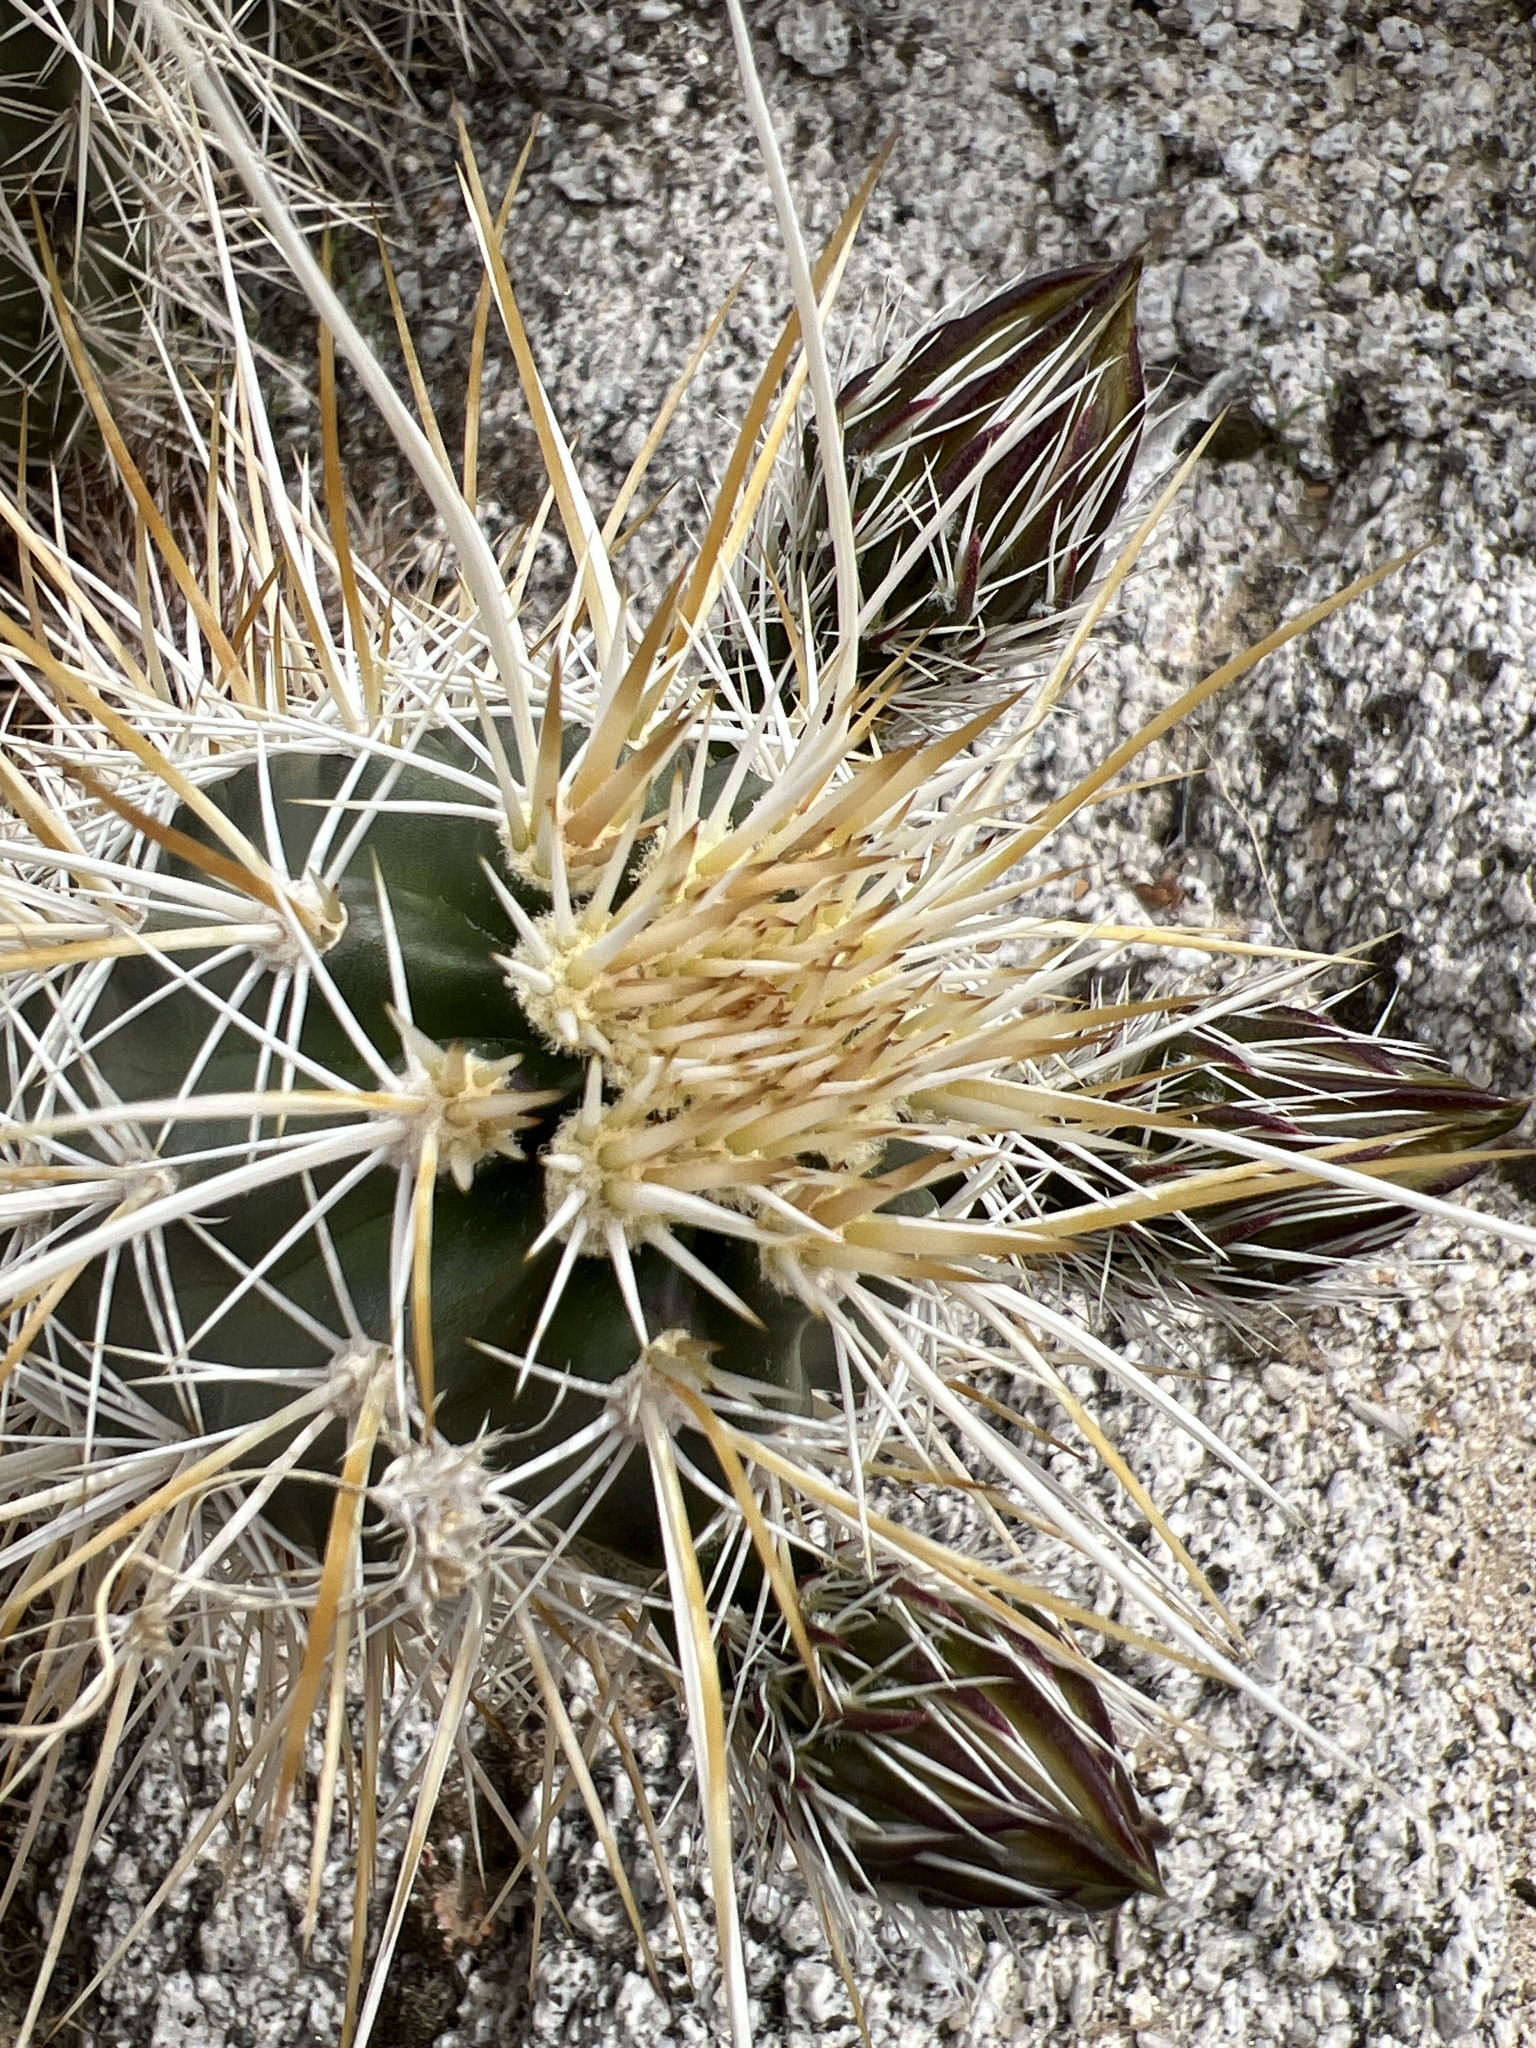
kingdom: Plantae
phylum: Tracheophyta
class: Magnoliopsida
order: Caryophyllales
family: Cactaceae
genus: Echinocereus
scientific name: Echinocereus engelmannii
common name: Engelmann's hedgehog cactus
